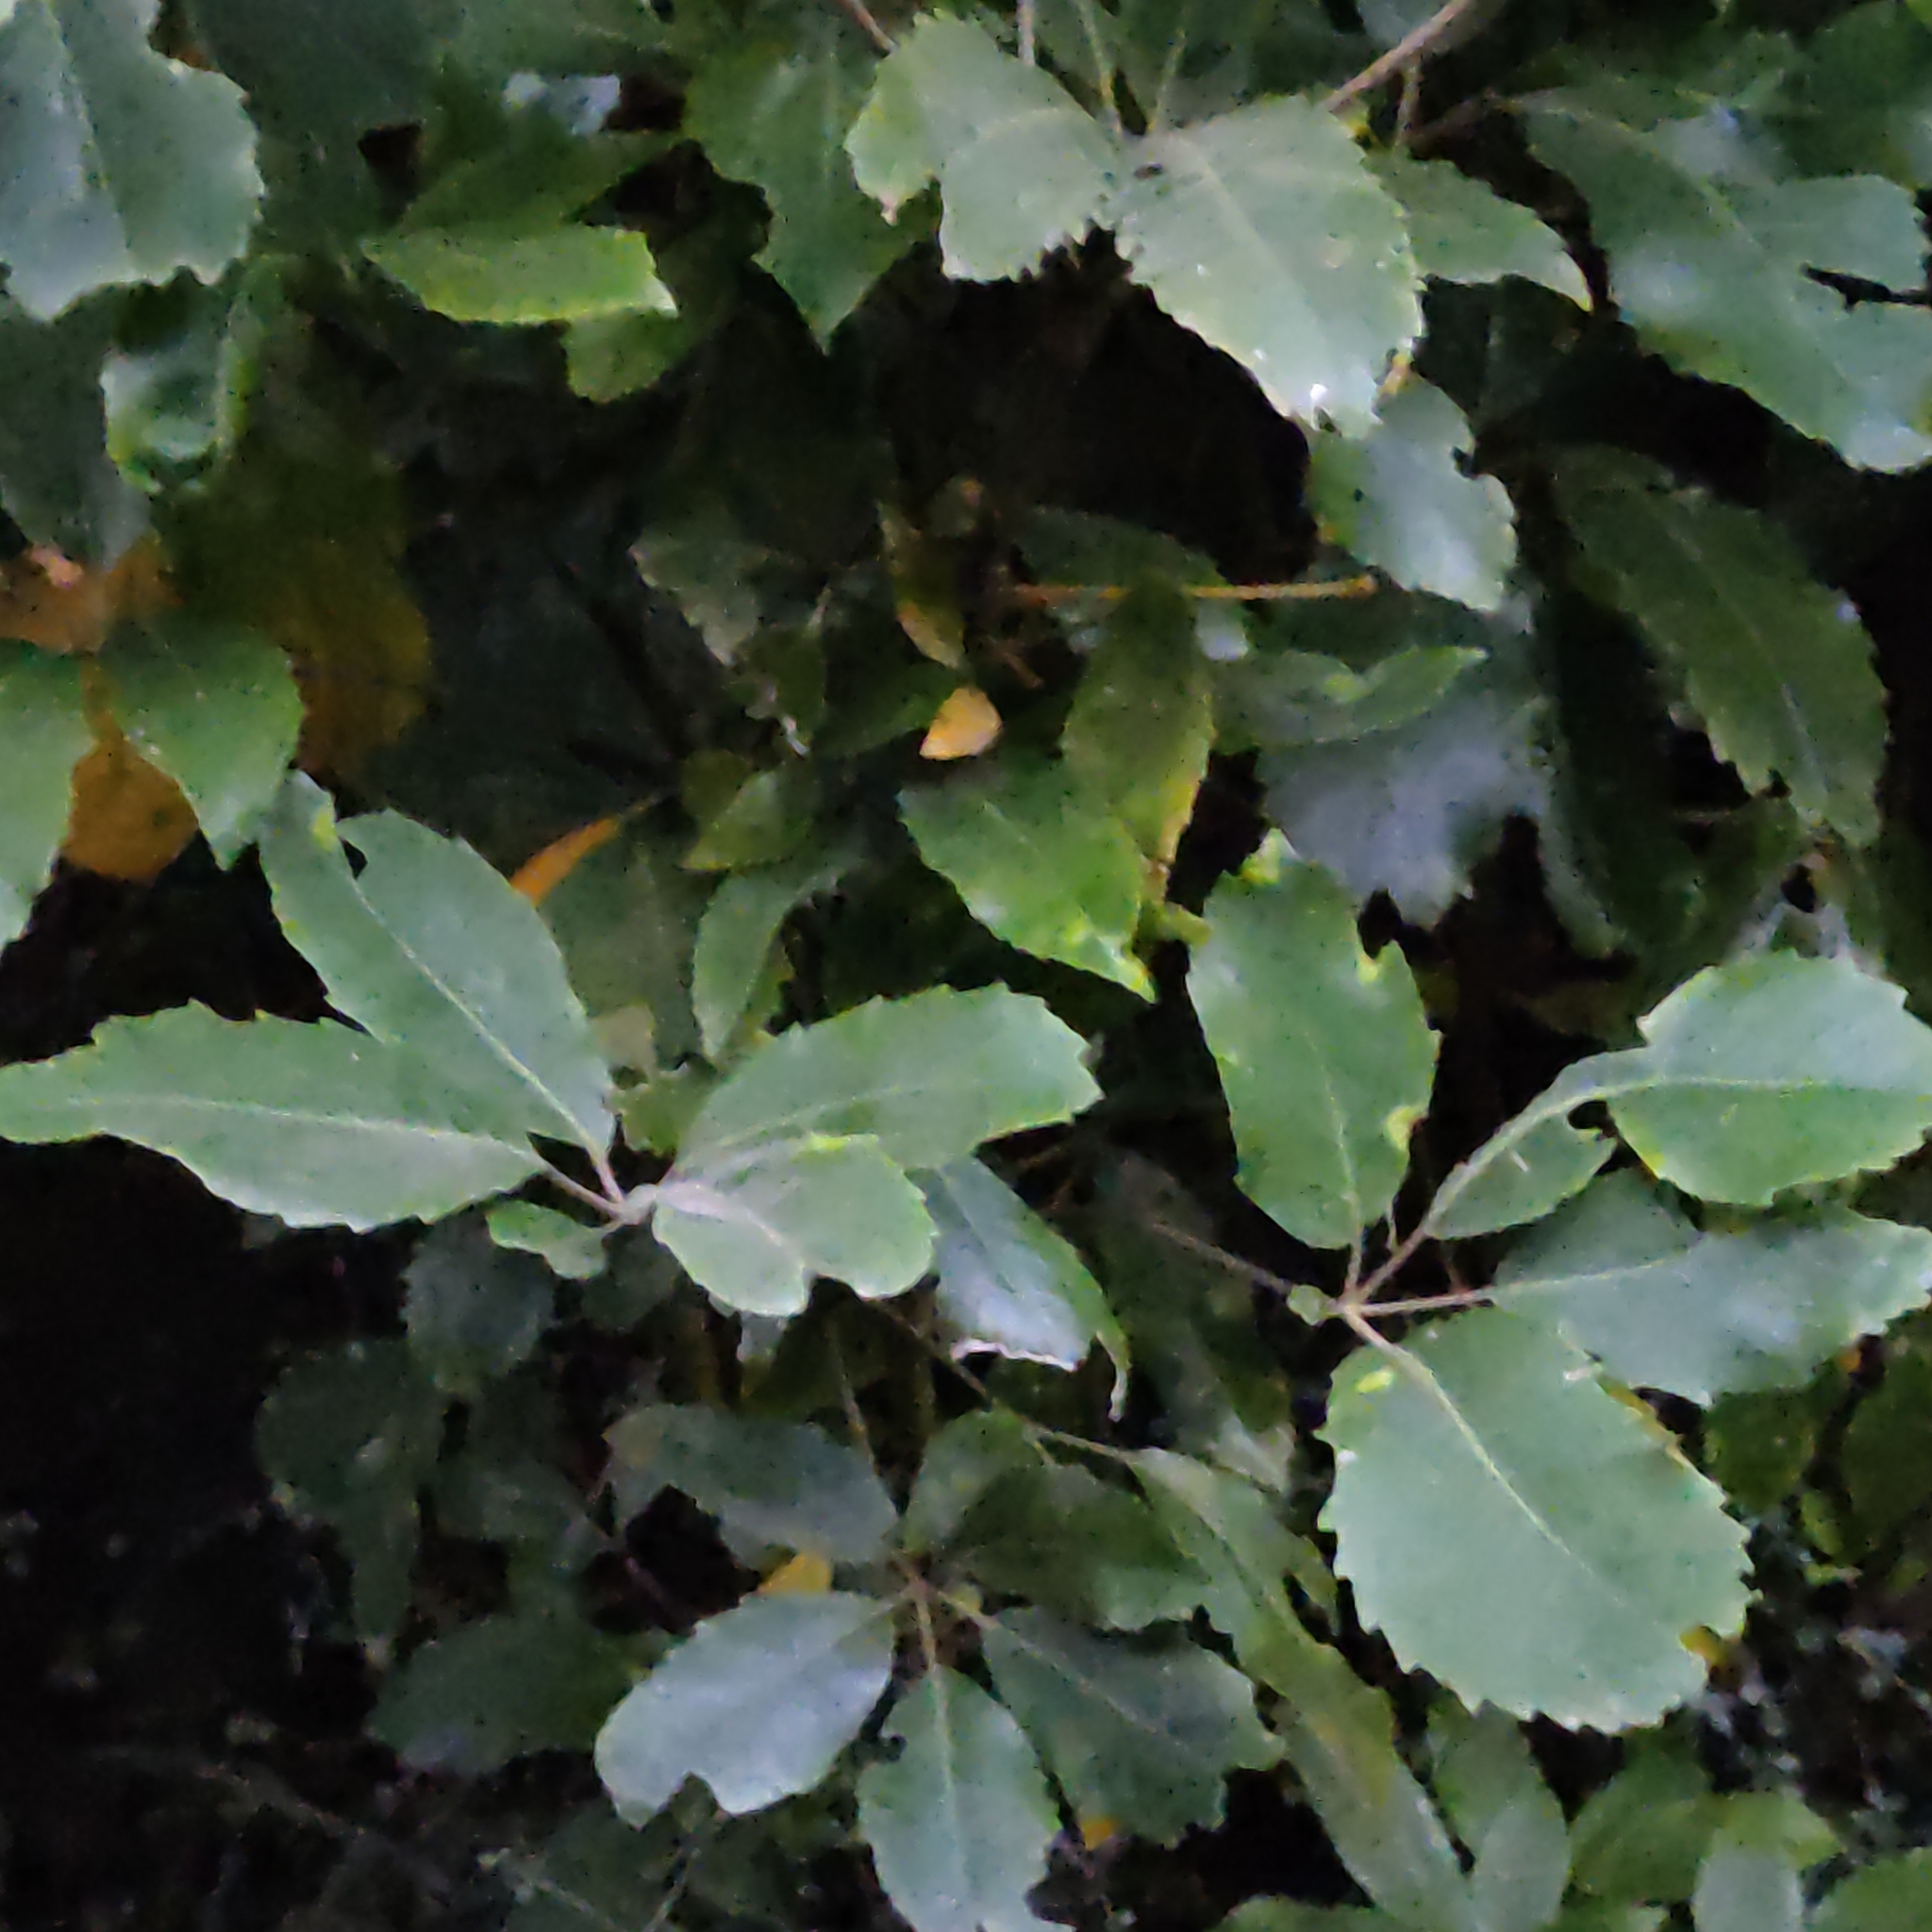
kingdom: Plantae
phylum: Tracheophyta
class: Magnoliopsida
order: Apiales
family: Araliaceae
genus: Neopanax
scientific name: Neopanax arboreus
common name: Five-fingers
